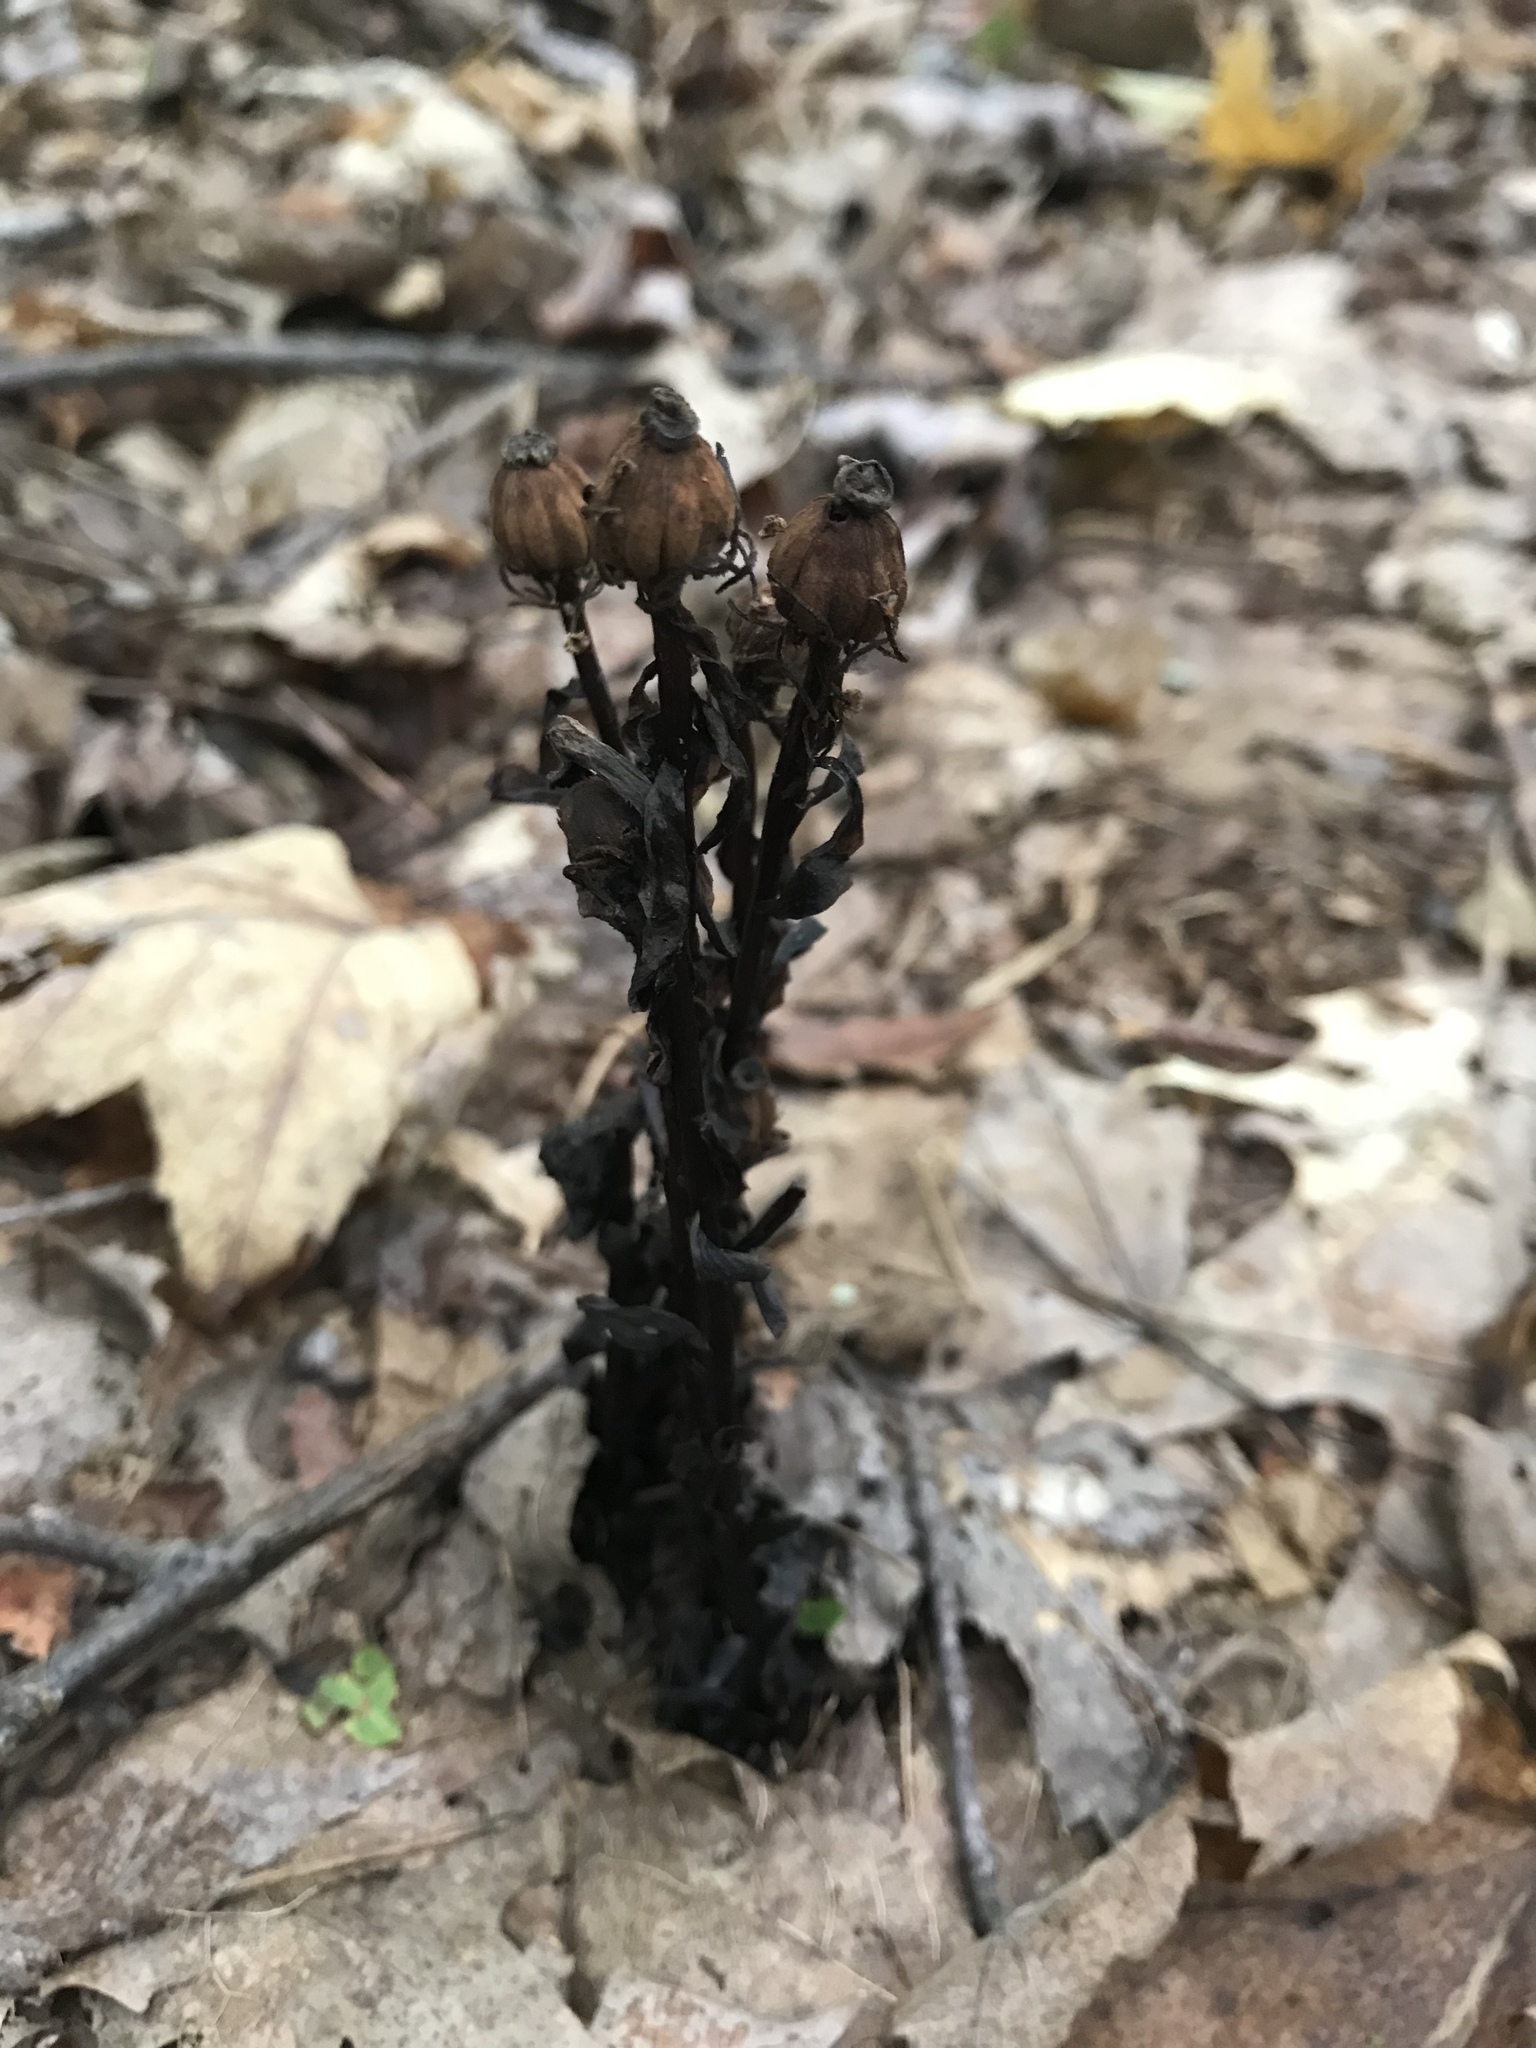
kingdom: Plantae
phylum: Tracheophyta
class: Magnoliopsida
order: Ericales
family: Ericaceae
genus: Monotropa
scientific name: Monotropa uniflora
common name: Convulsion root
